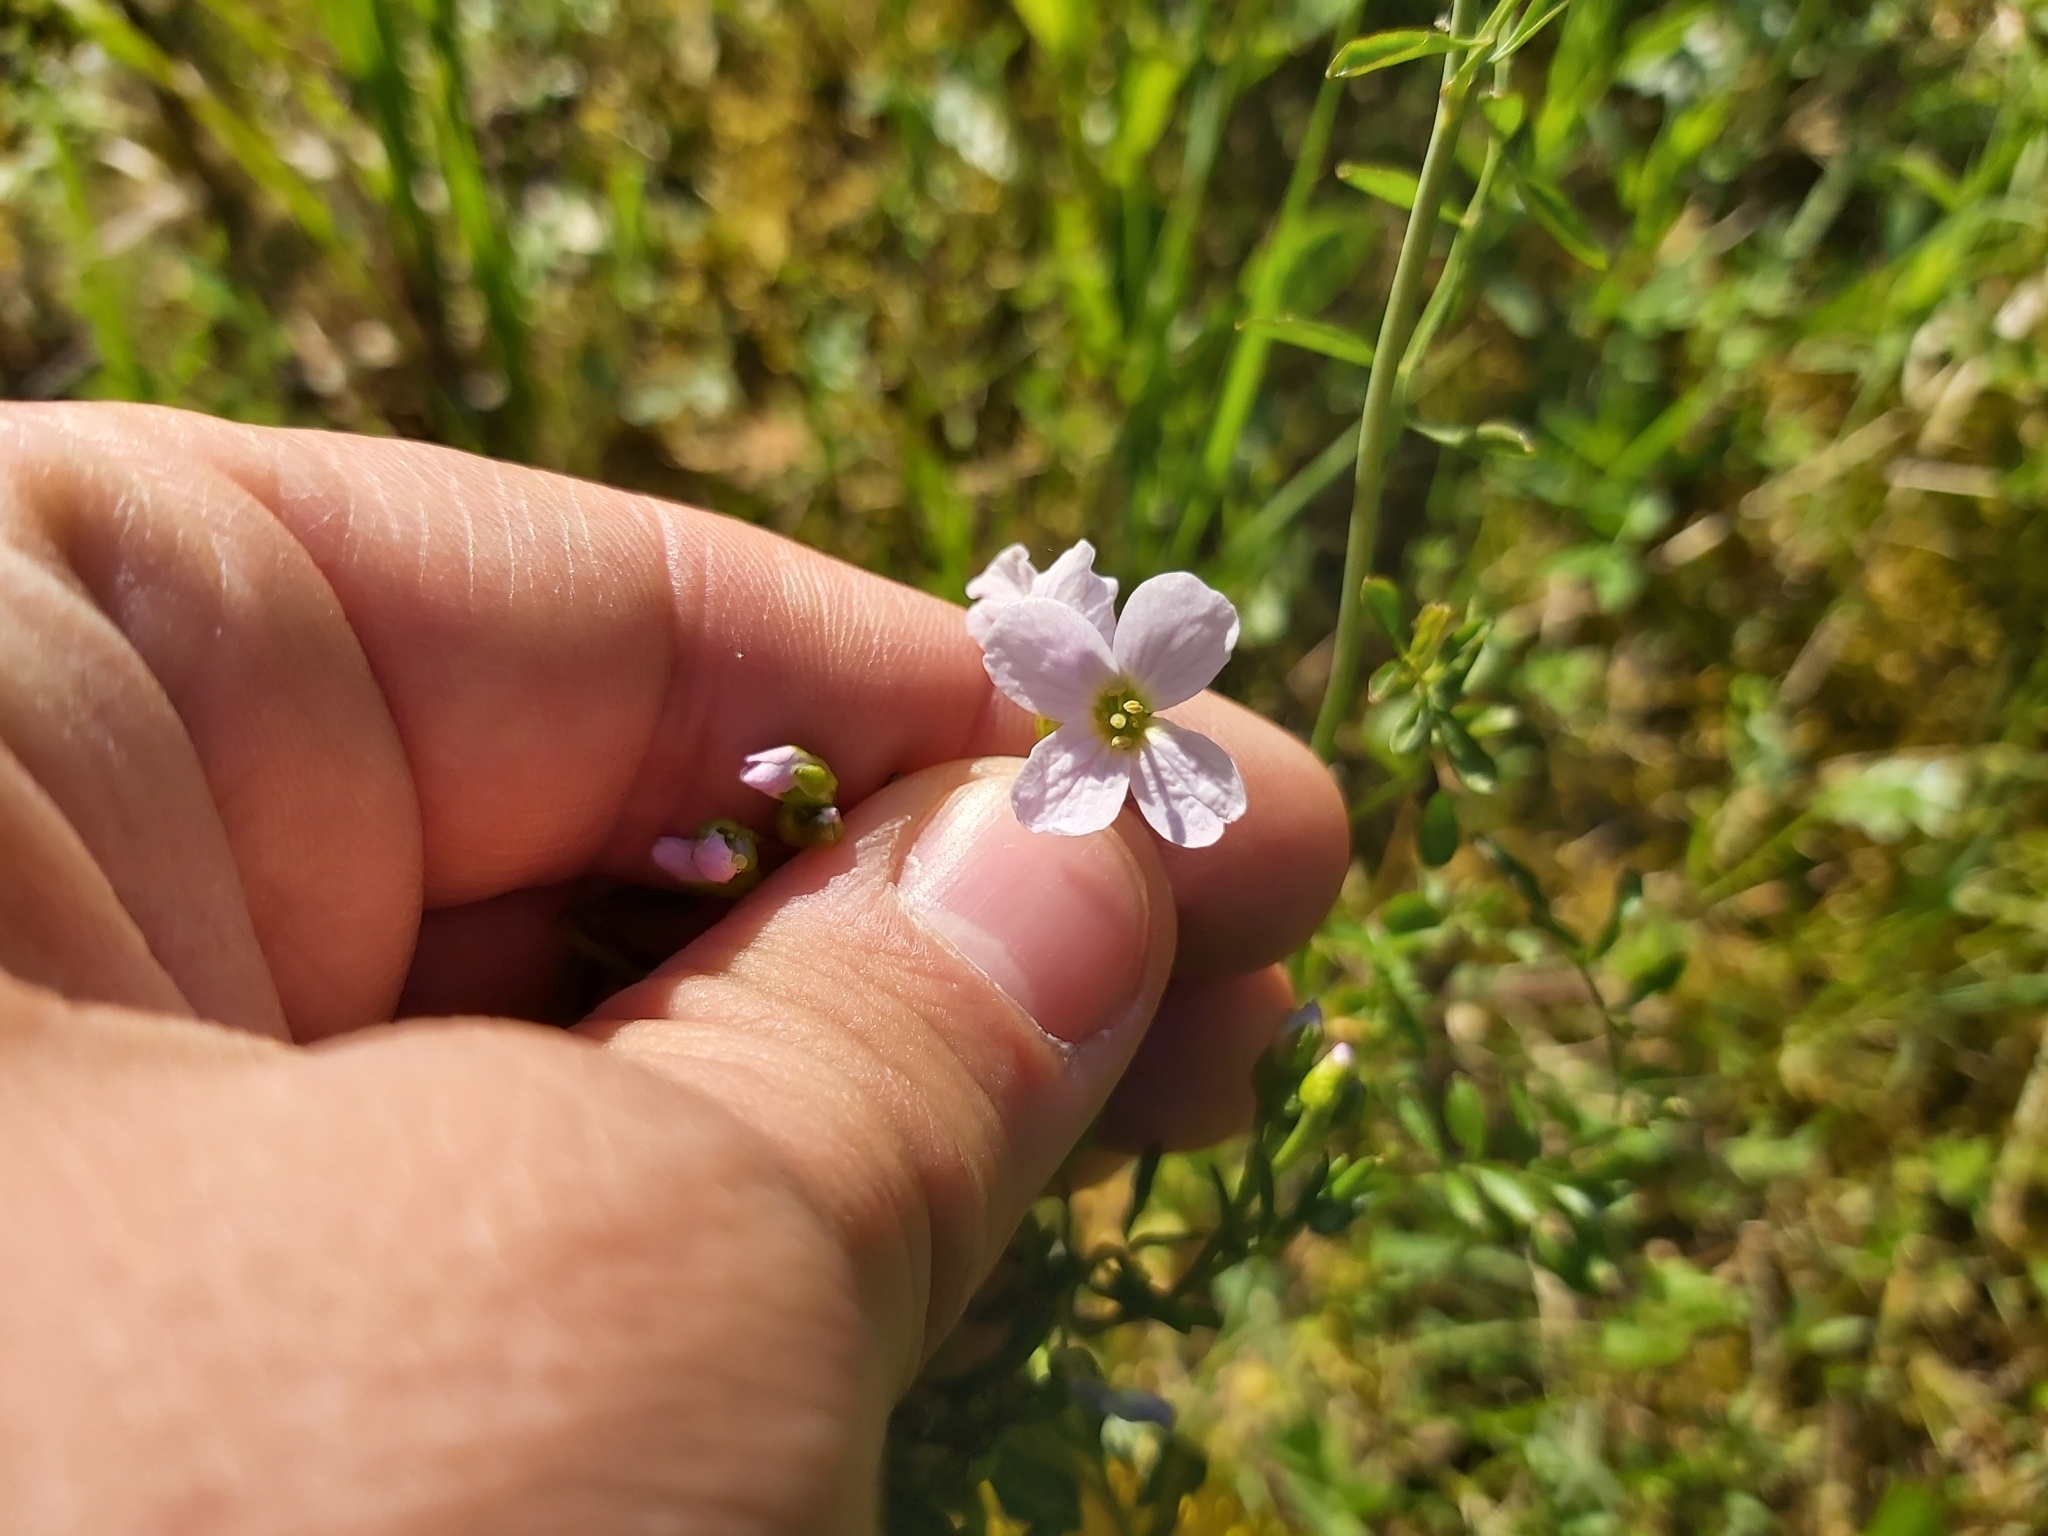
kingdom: Plantae
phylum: Tracheophyta
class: Magnoliopsida
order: Brassicales
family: Brassicaceae
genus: Cardamine
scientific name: Cardamine pratensis
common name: Cuckoo flower
